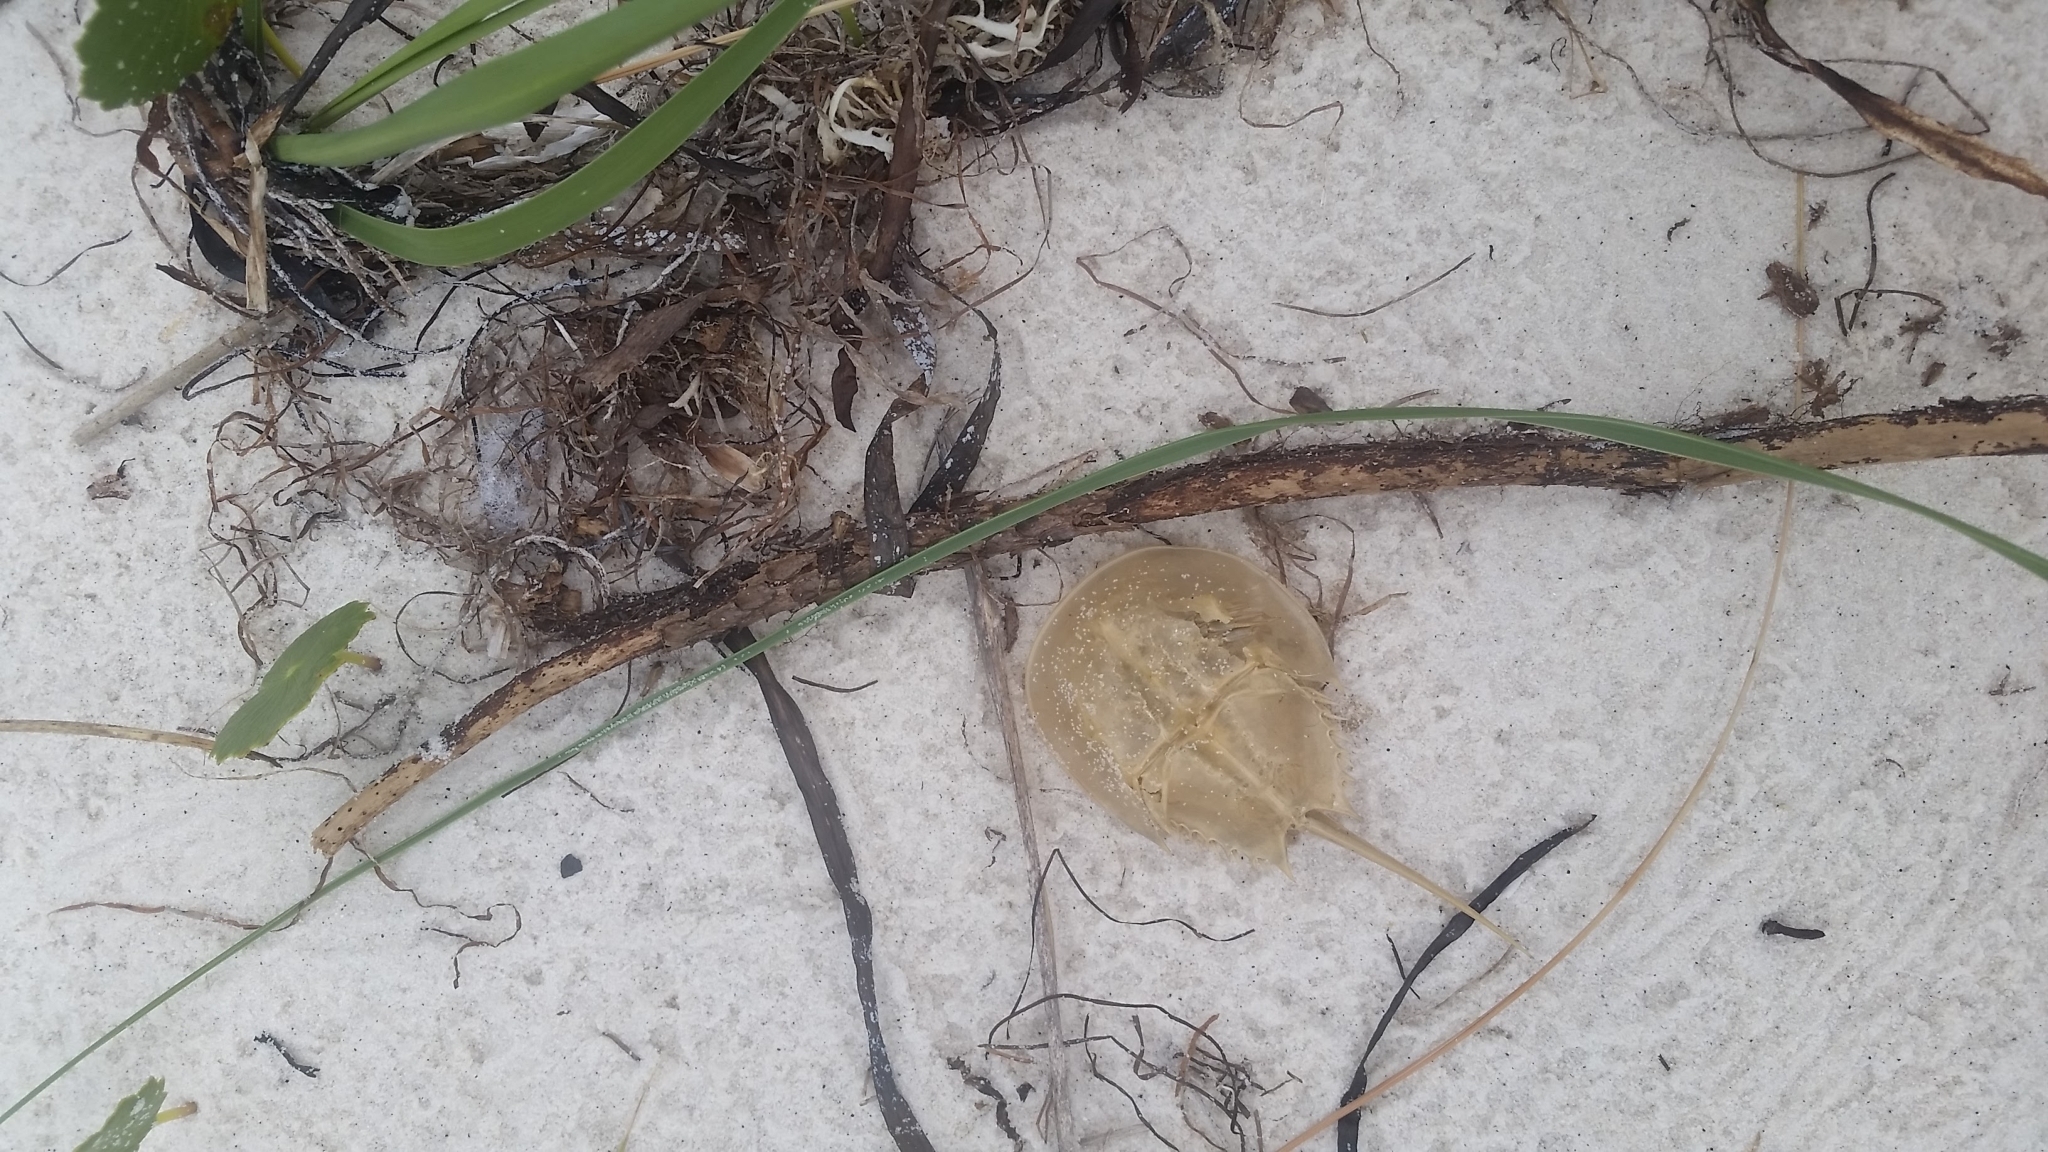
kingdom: Animalia
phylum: Arthropoda
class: Merostomata
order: Xiphosurida
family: Limulidae
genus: Limulus
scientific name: Limulus polyphemus
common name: Horseshoe crab
